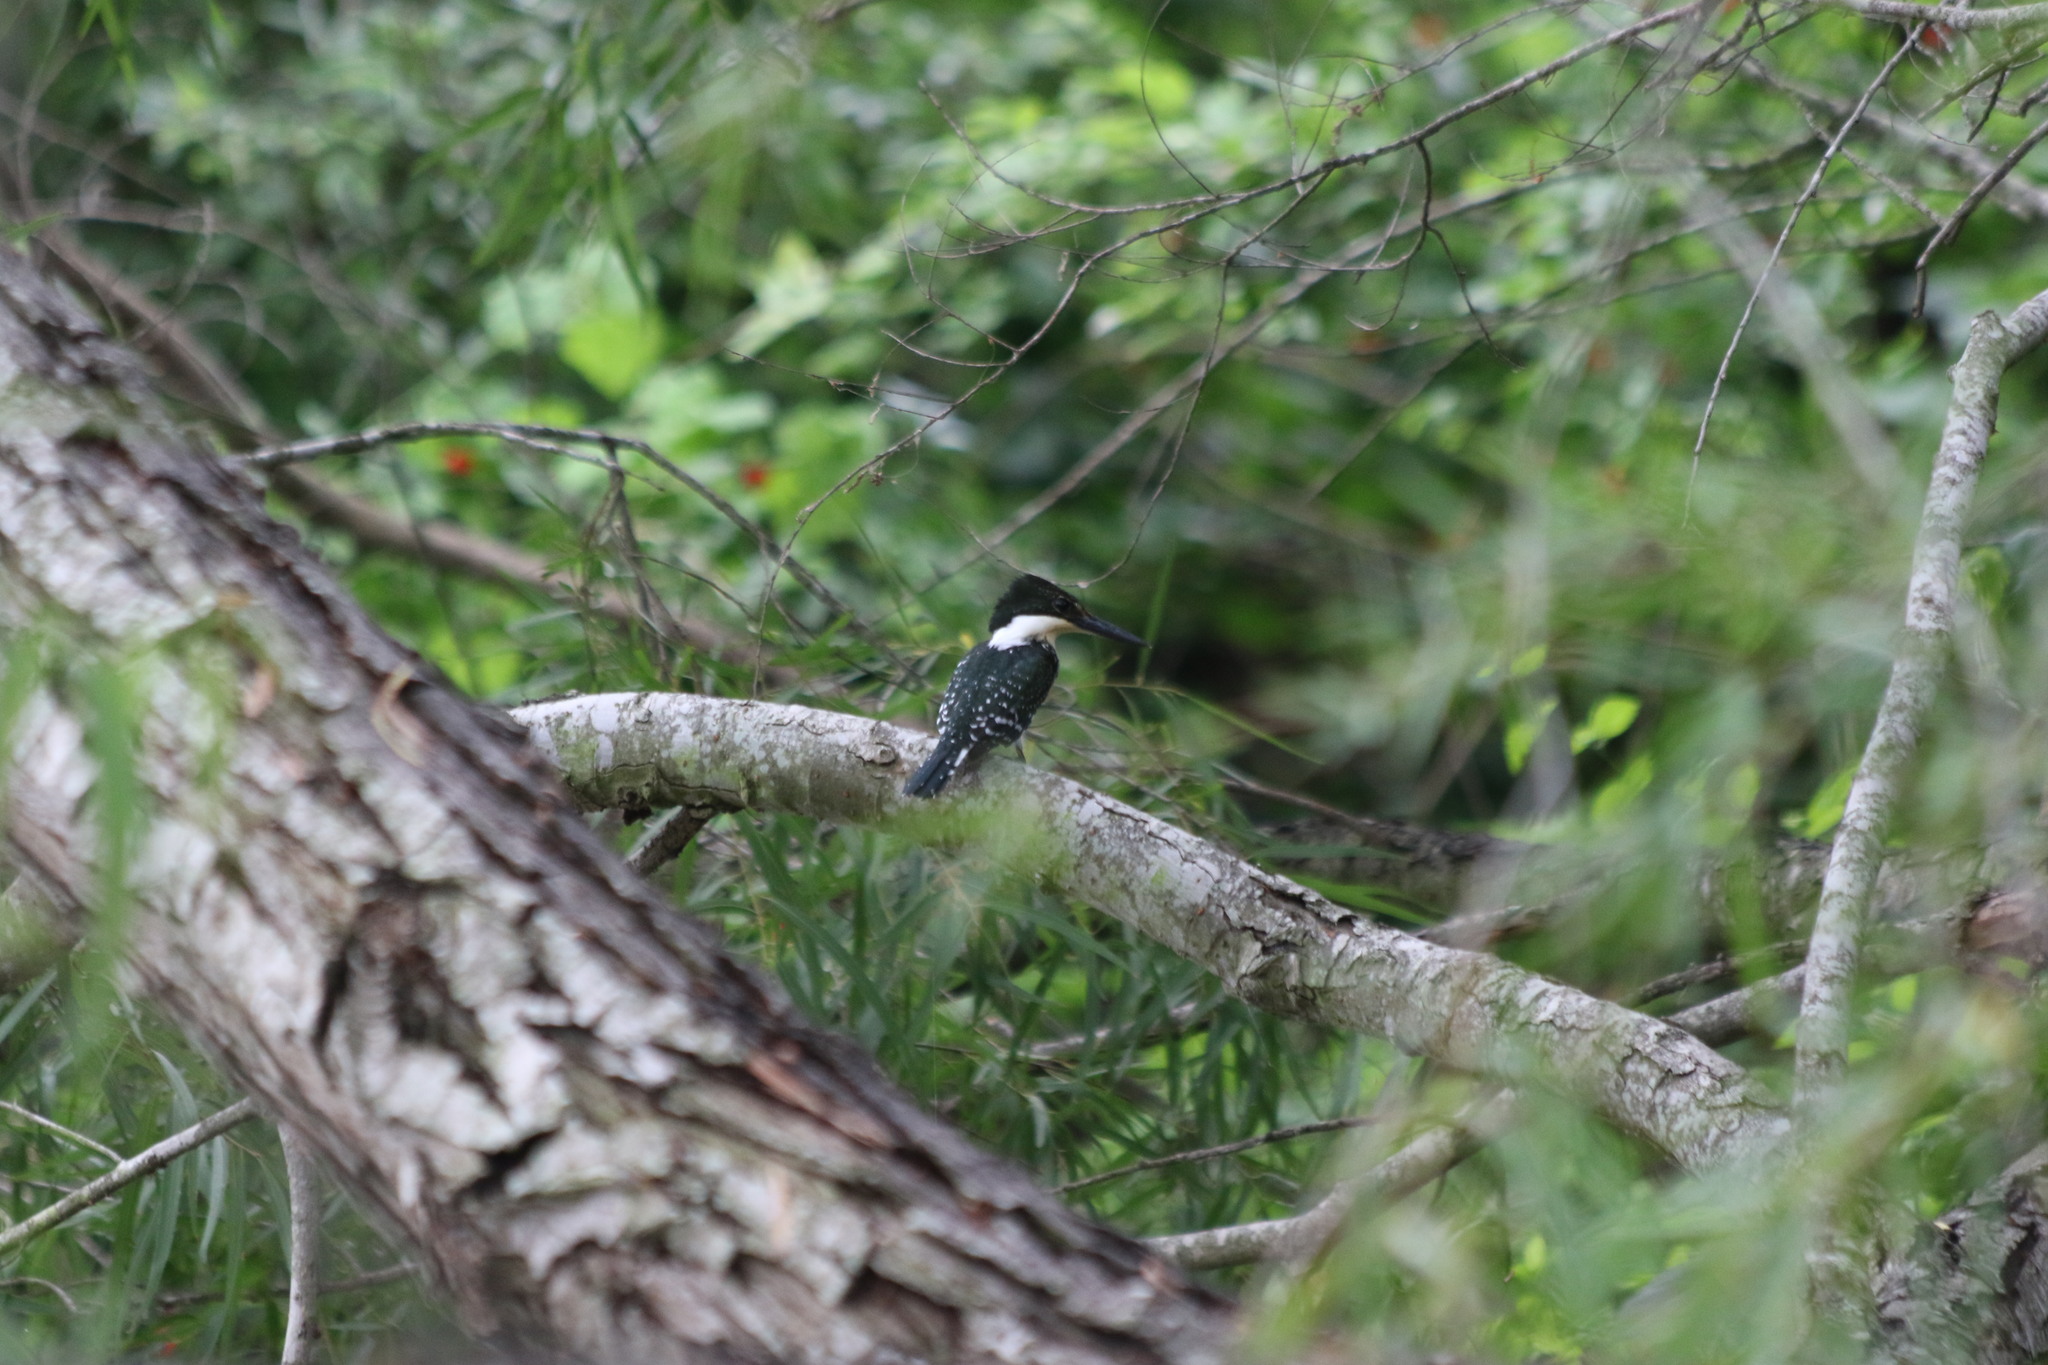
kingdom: Animalia
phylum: Chordata
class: Aves
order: Coraciiformes
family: Alcedinidae
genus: Chloroceryle
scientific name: Chloroceryle americana
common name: Green kingfisher
